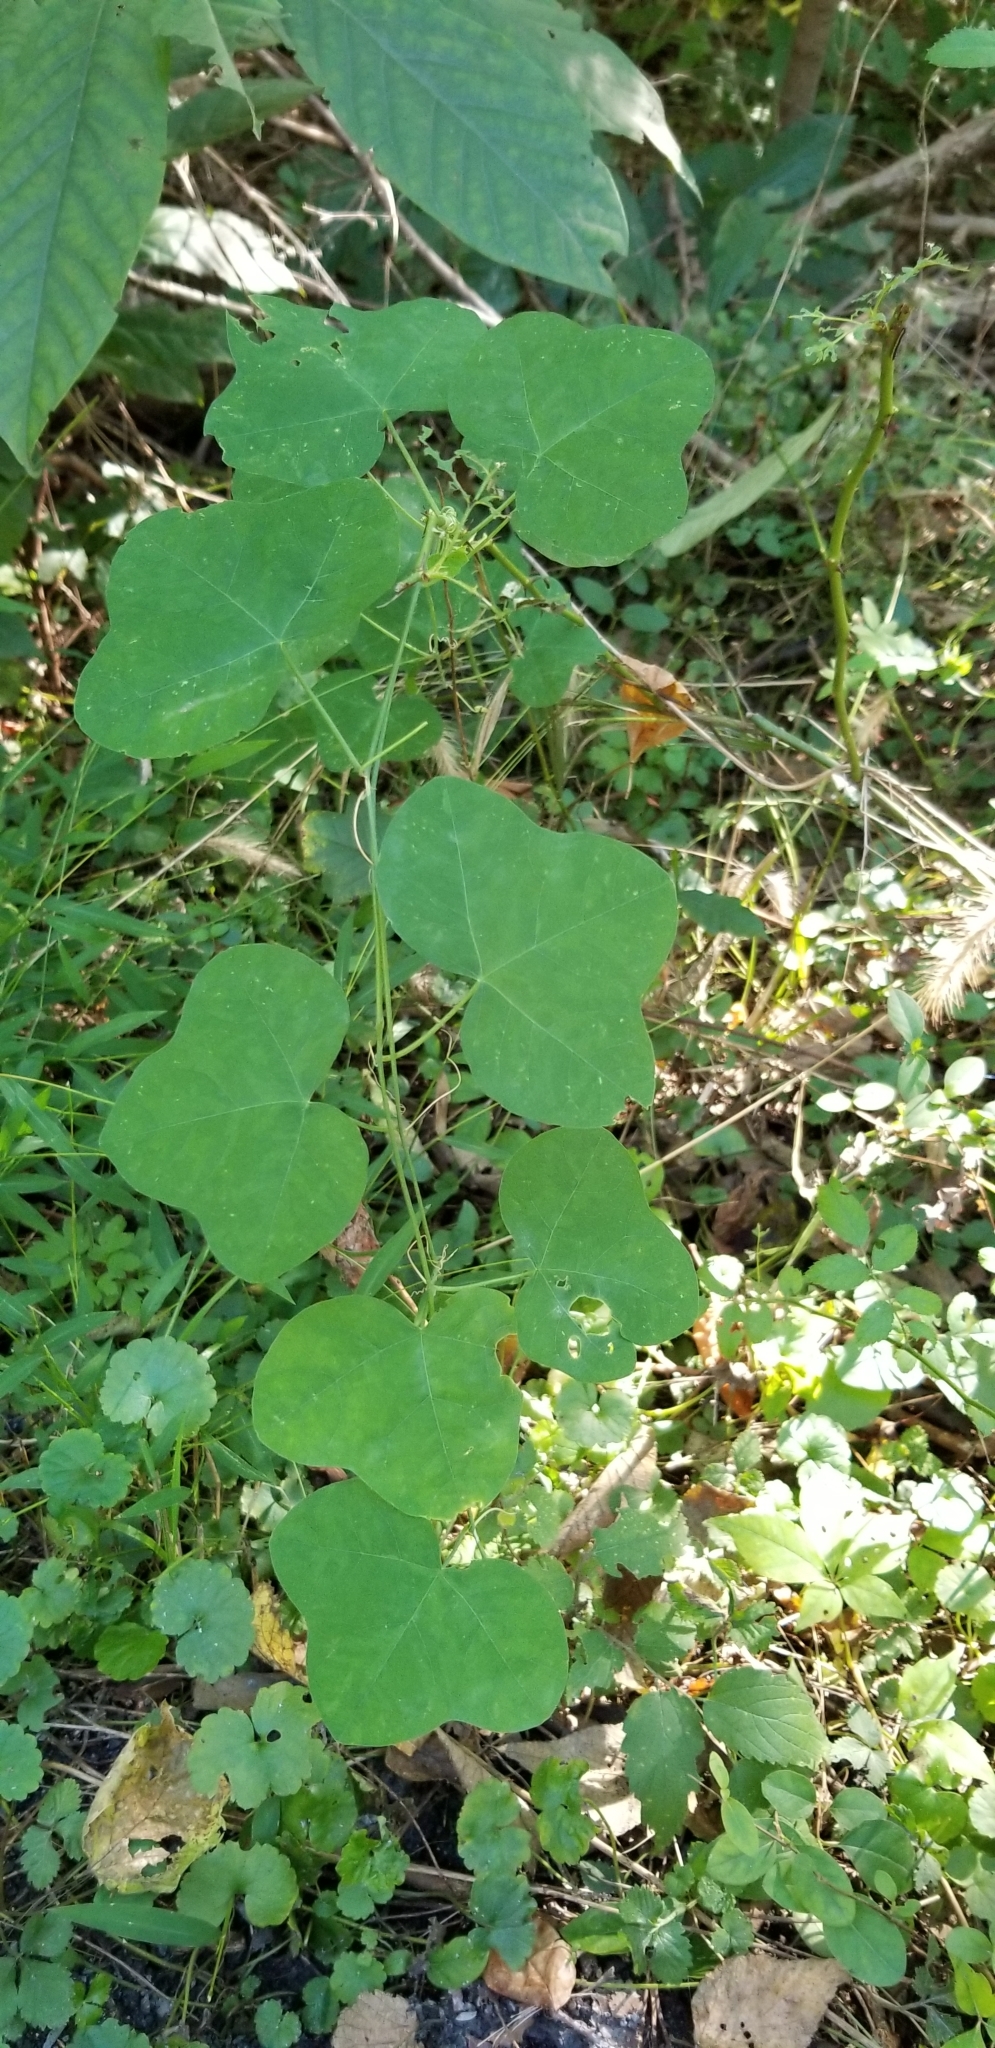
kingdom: Plantae
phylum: Tracheophyta
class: Magnoliopsida
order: Malpighiales
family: Passifloraceae
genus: Passiflora
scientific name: Passiflora lutea
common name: Yellow passionflower
